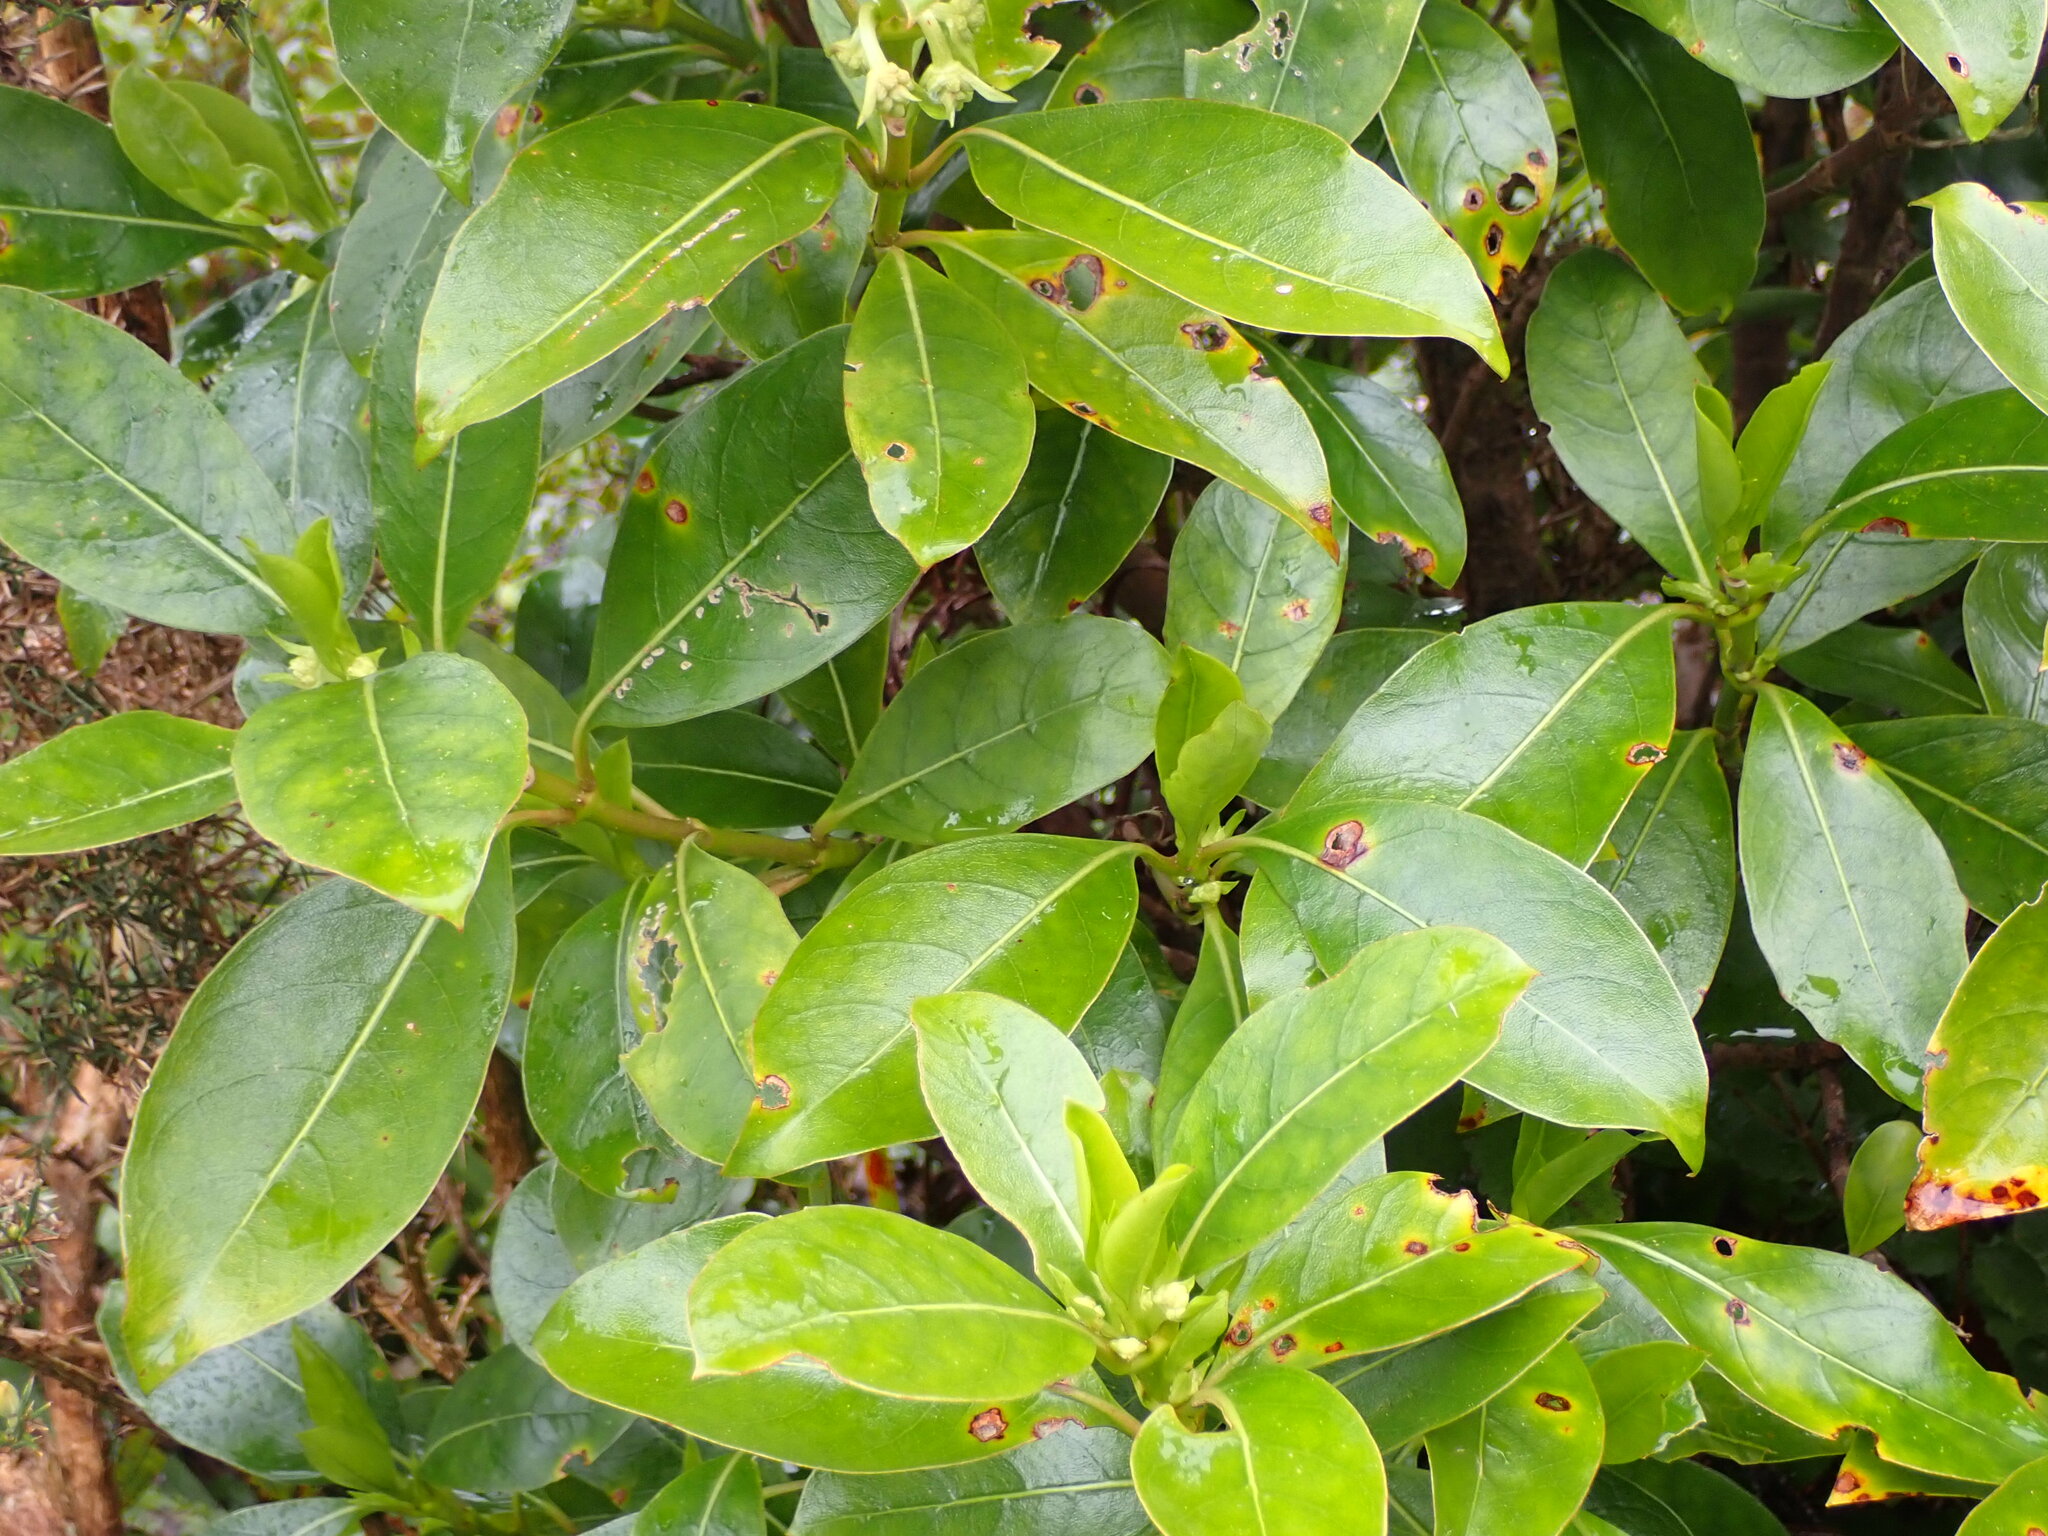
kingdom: Plantae
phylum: Tracheophyta
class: Magnoliopsida
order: Gentianales
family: Rubiaceae
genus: Coprosma
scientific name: Coprosma lucida
